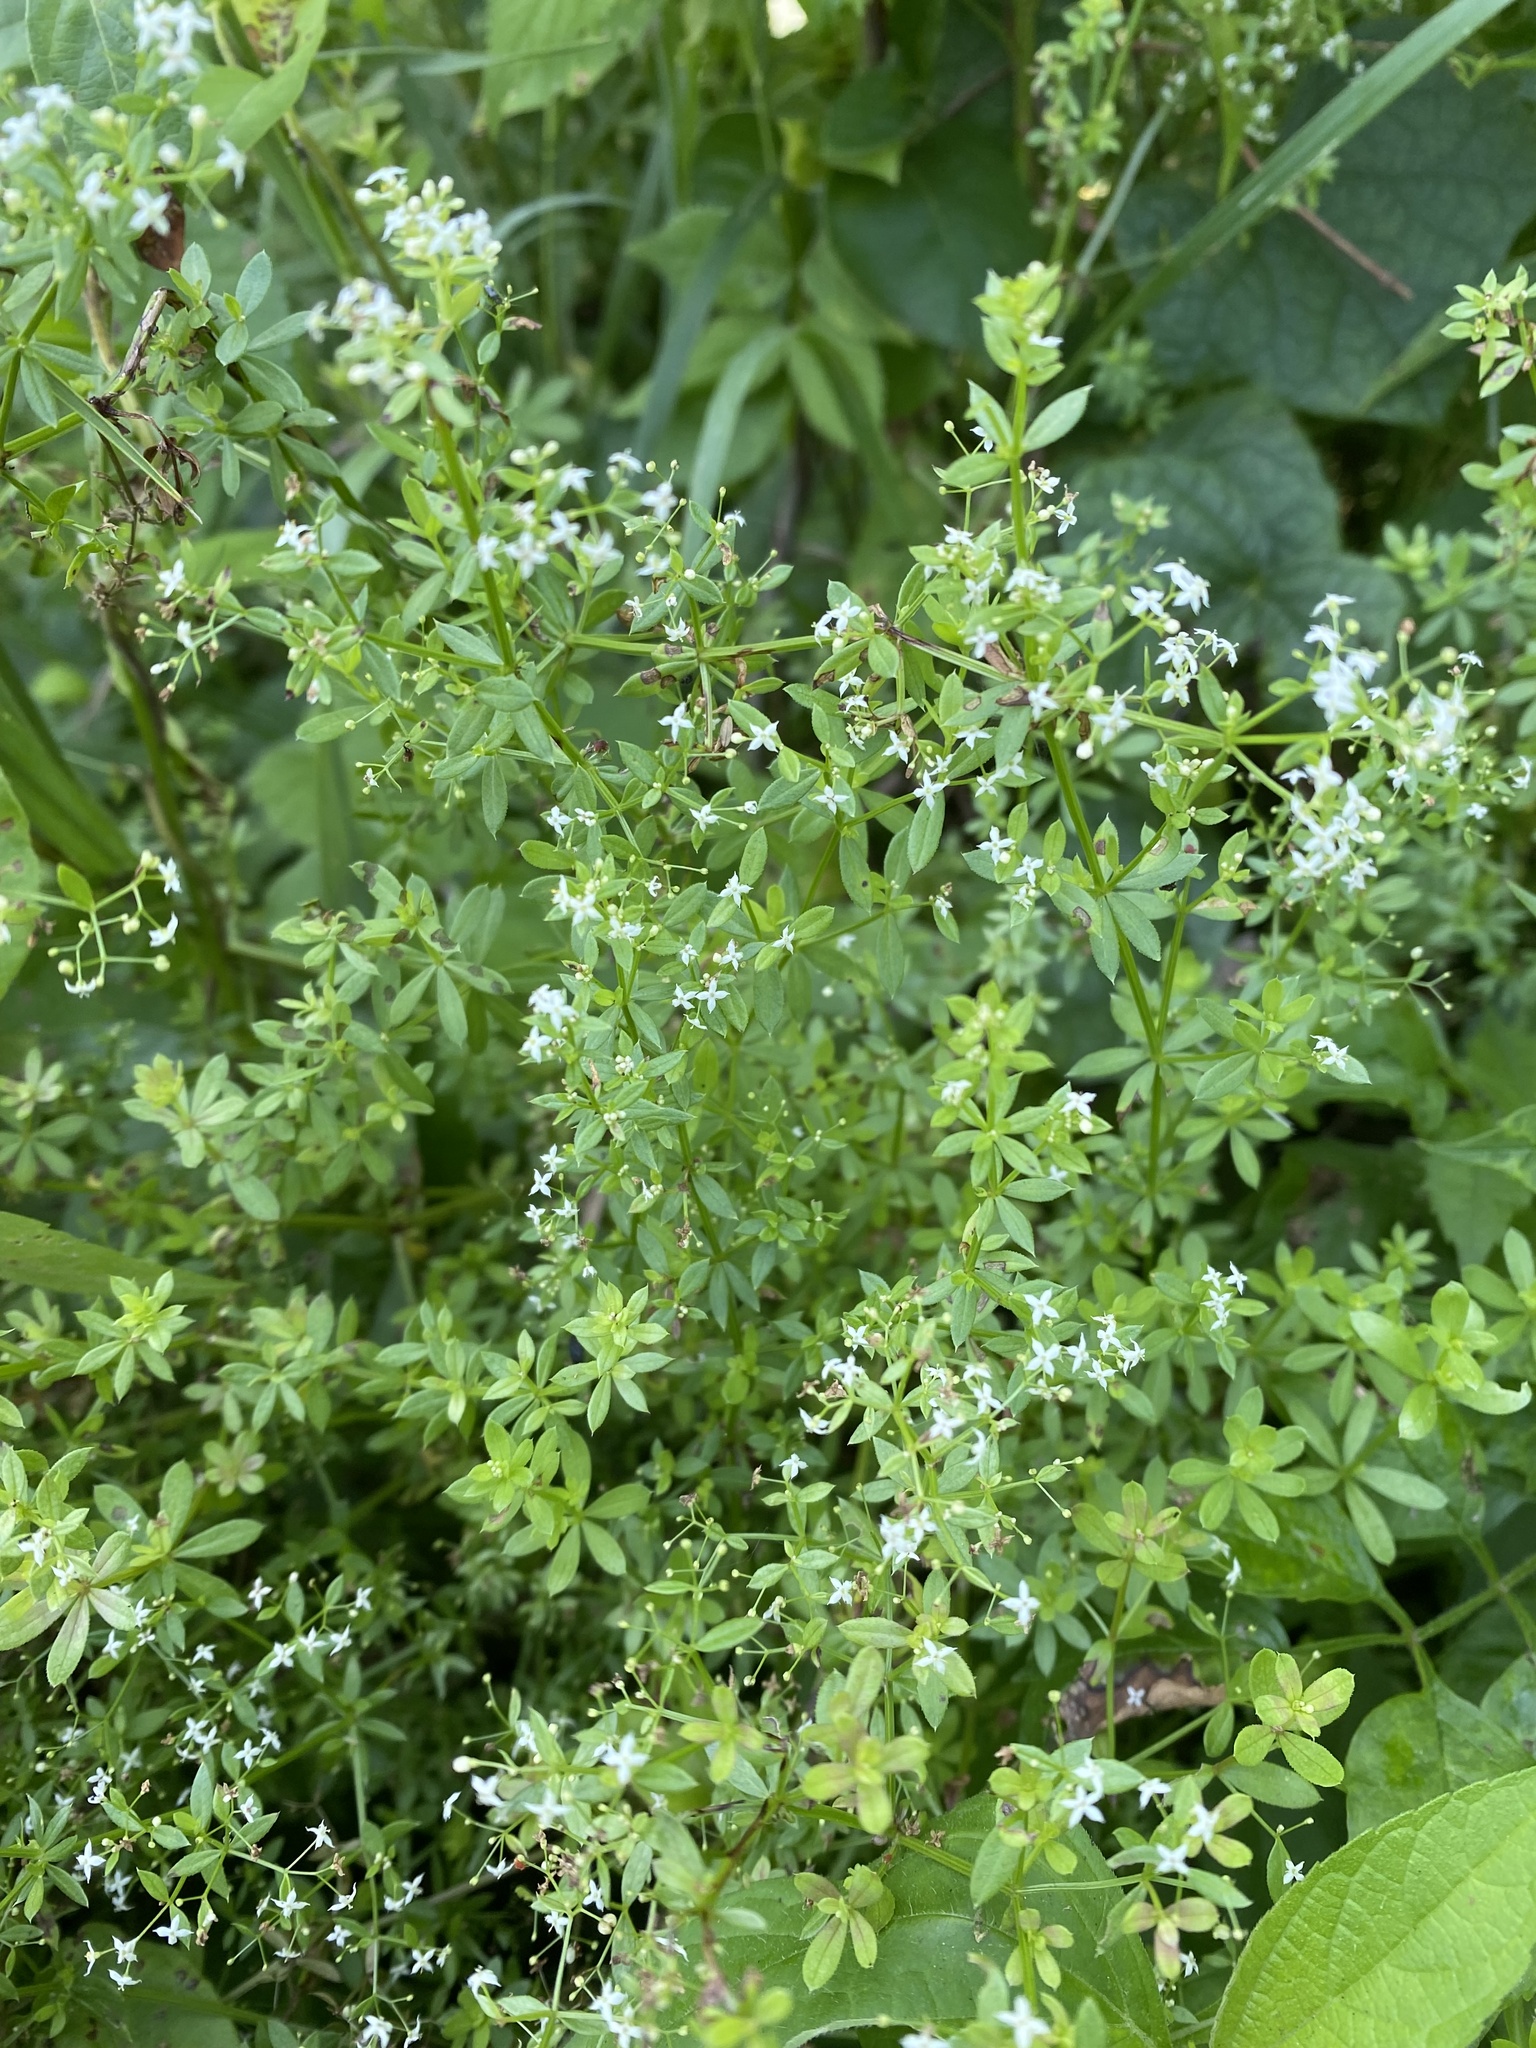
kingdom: Plantae
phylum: Tracheophyta
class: Magnoliopsida
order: Gentianales
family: Rubiaceae
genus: Galium
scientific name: Galium mollugo
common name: Hedge bedstraw
